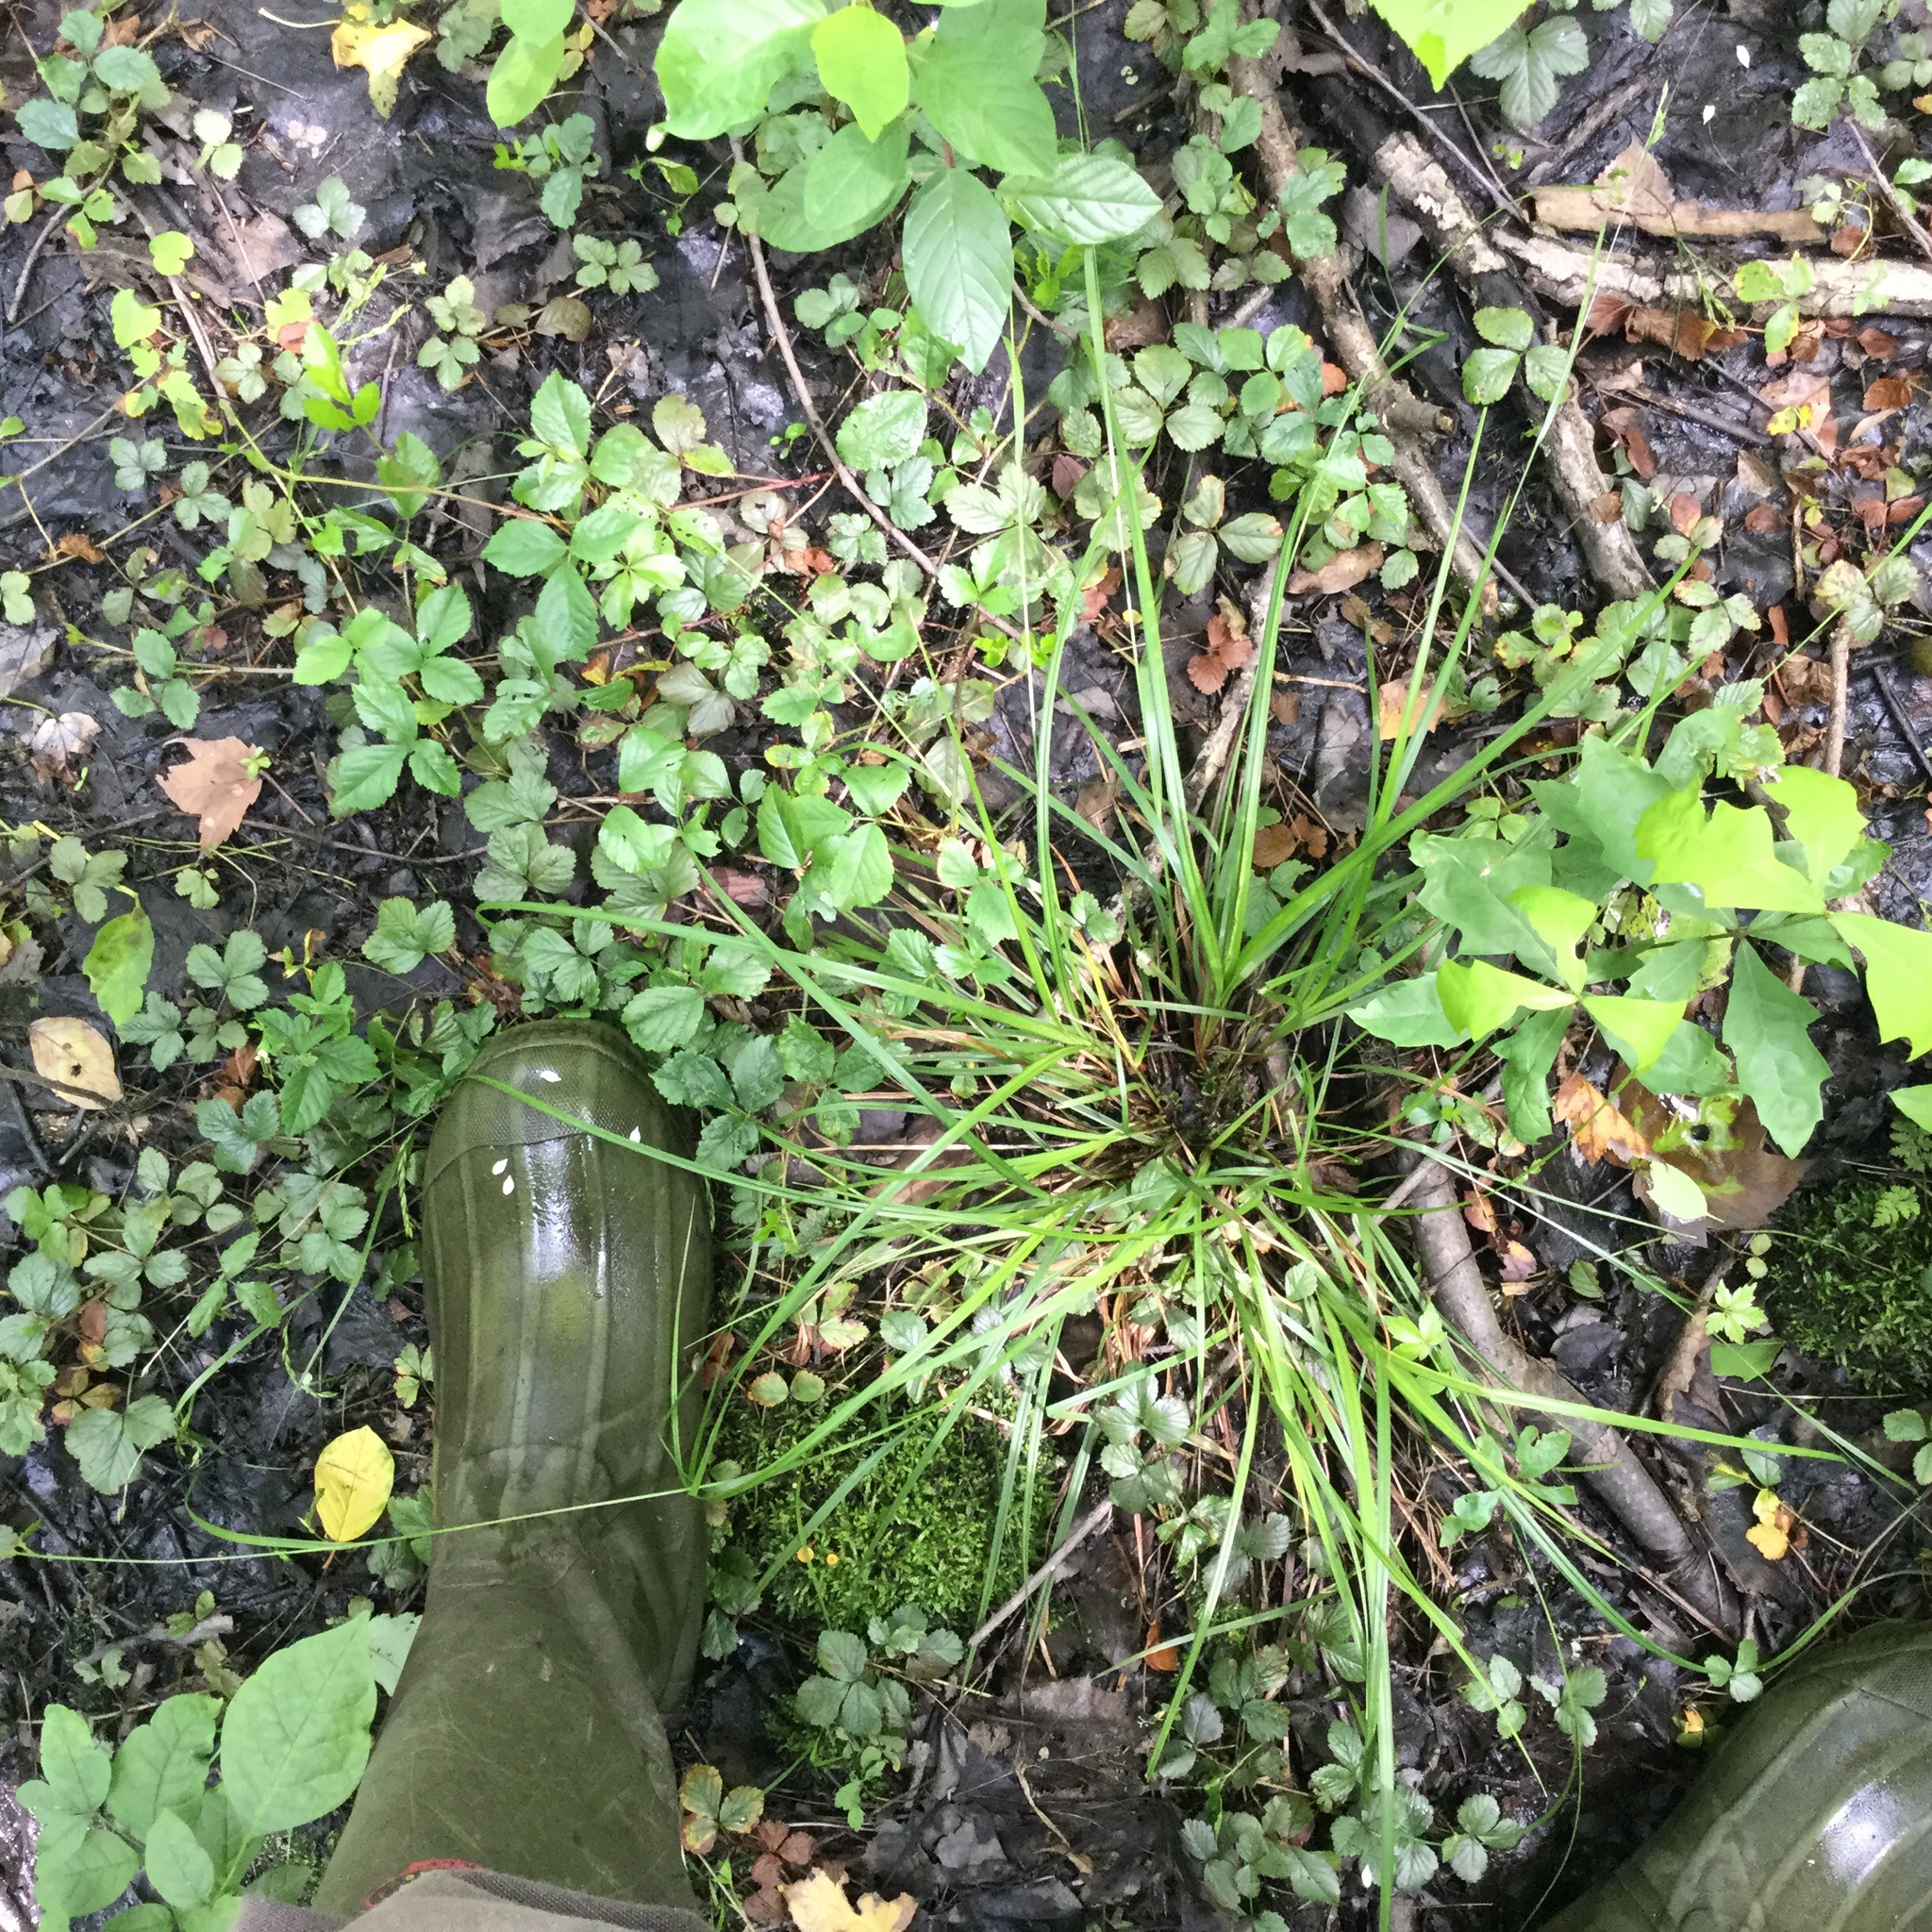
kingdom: Plantae
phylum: Tracheophyta
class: Liliopsida
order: Poales
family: Cyperaceae
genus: Carex
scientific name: Carex debilis
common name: White-edge sedge
